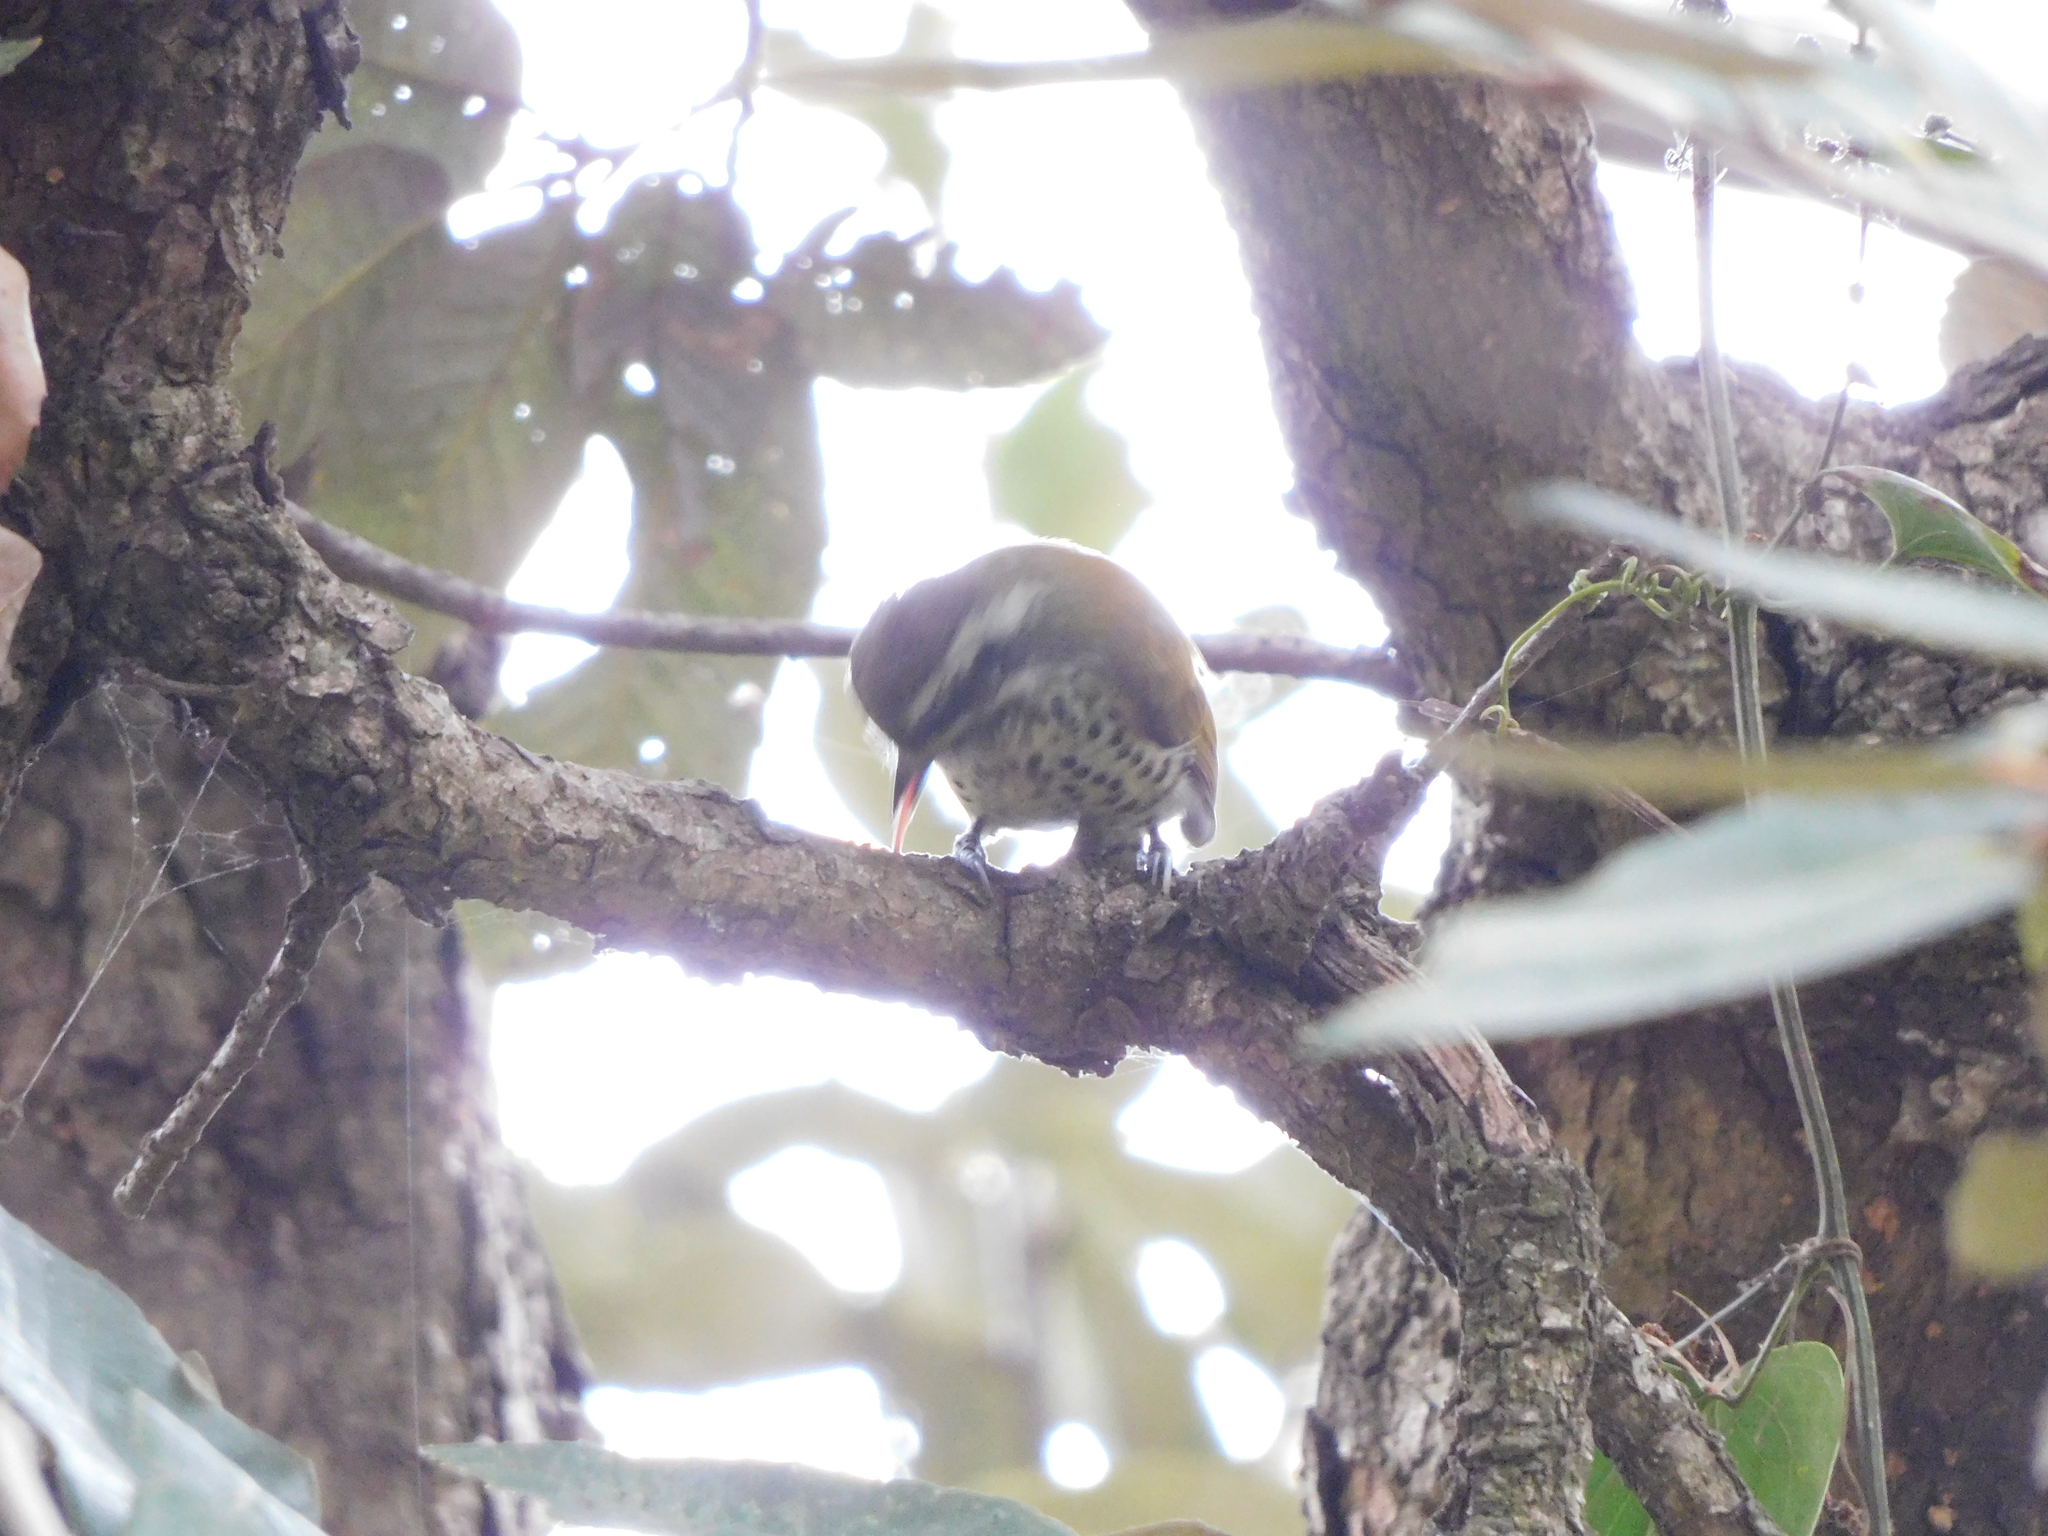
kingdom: Animalia
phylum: Chordata
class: Aves
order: Piciformes
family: Picidae
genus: Picumnus
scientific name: Picumnus innominatus
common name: Speckled piculet
